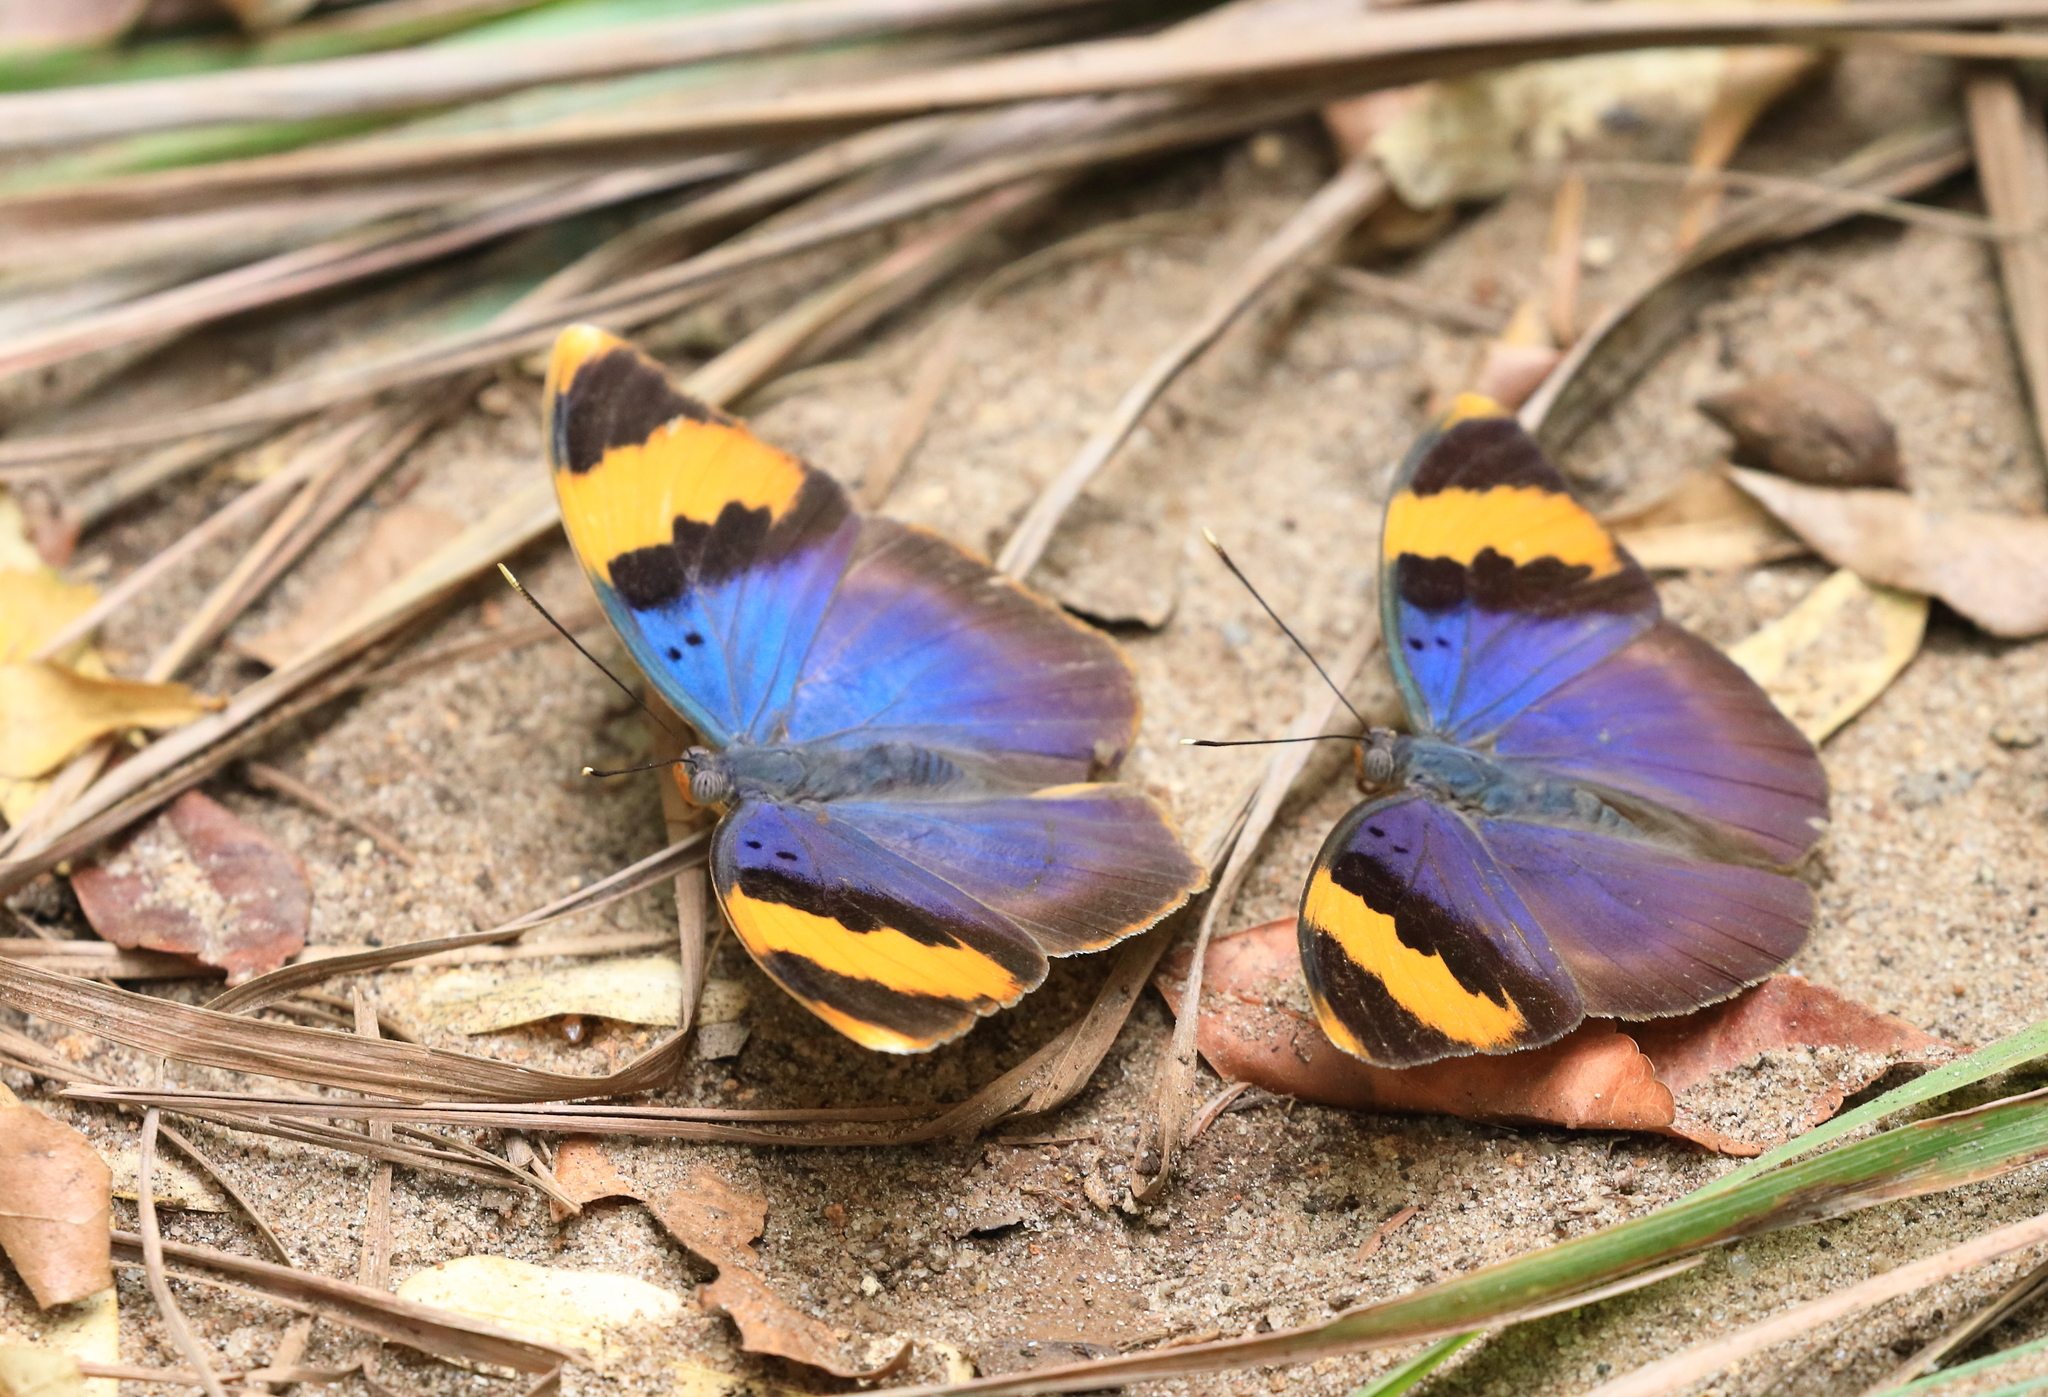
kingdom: Animalia
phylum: Arthropoda
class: Insecta
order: Lepidoptera
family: Nymphalidae
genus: Euphaedra
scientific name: Euphaedra neophron
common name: Gold-banded forester
